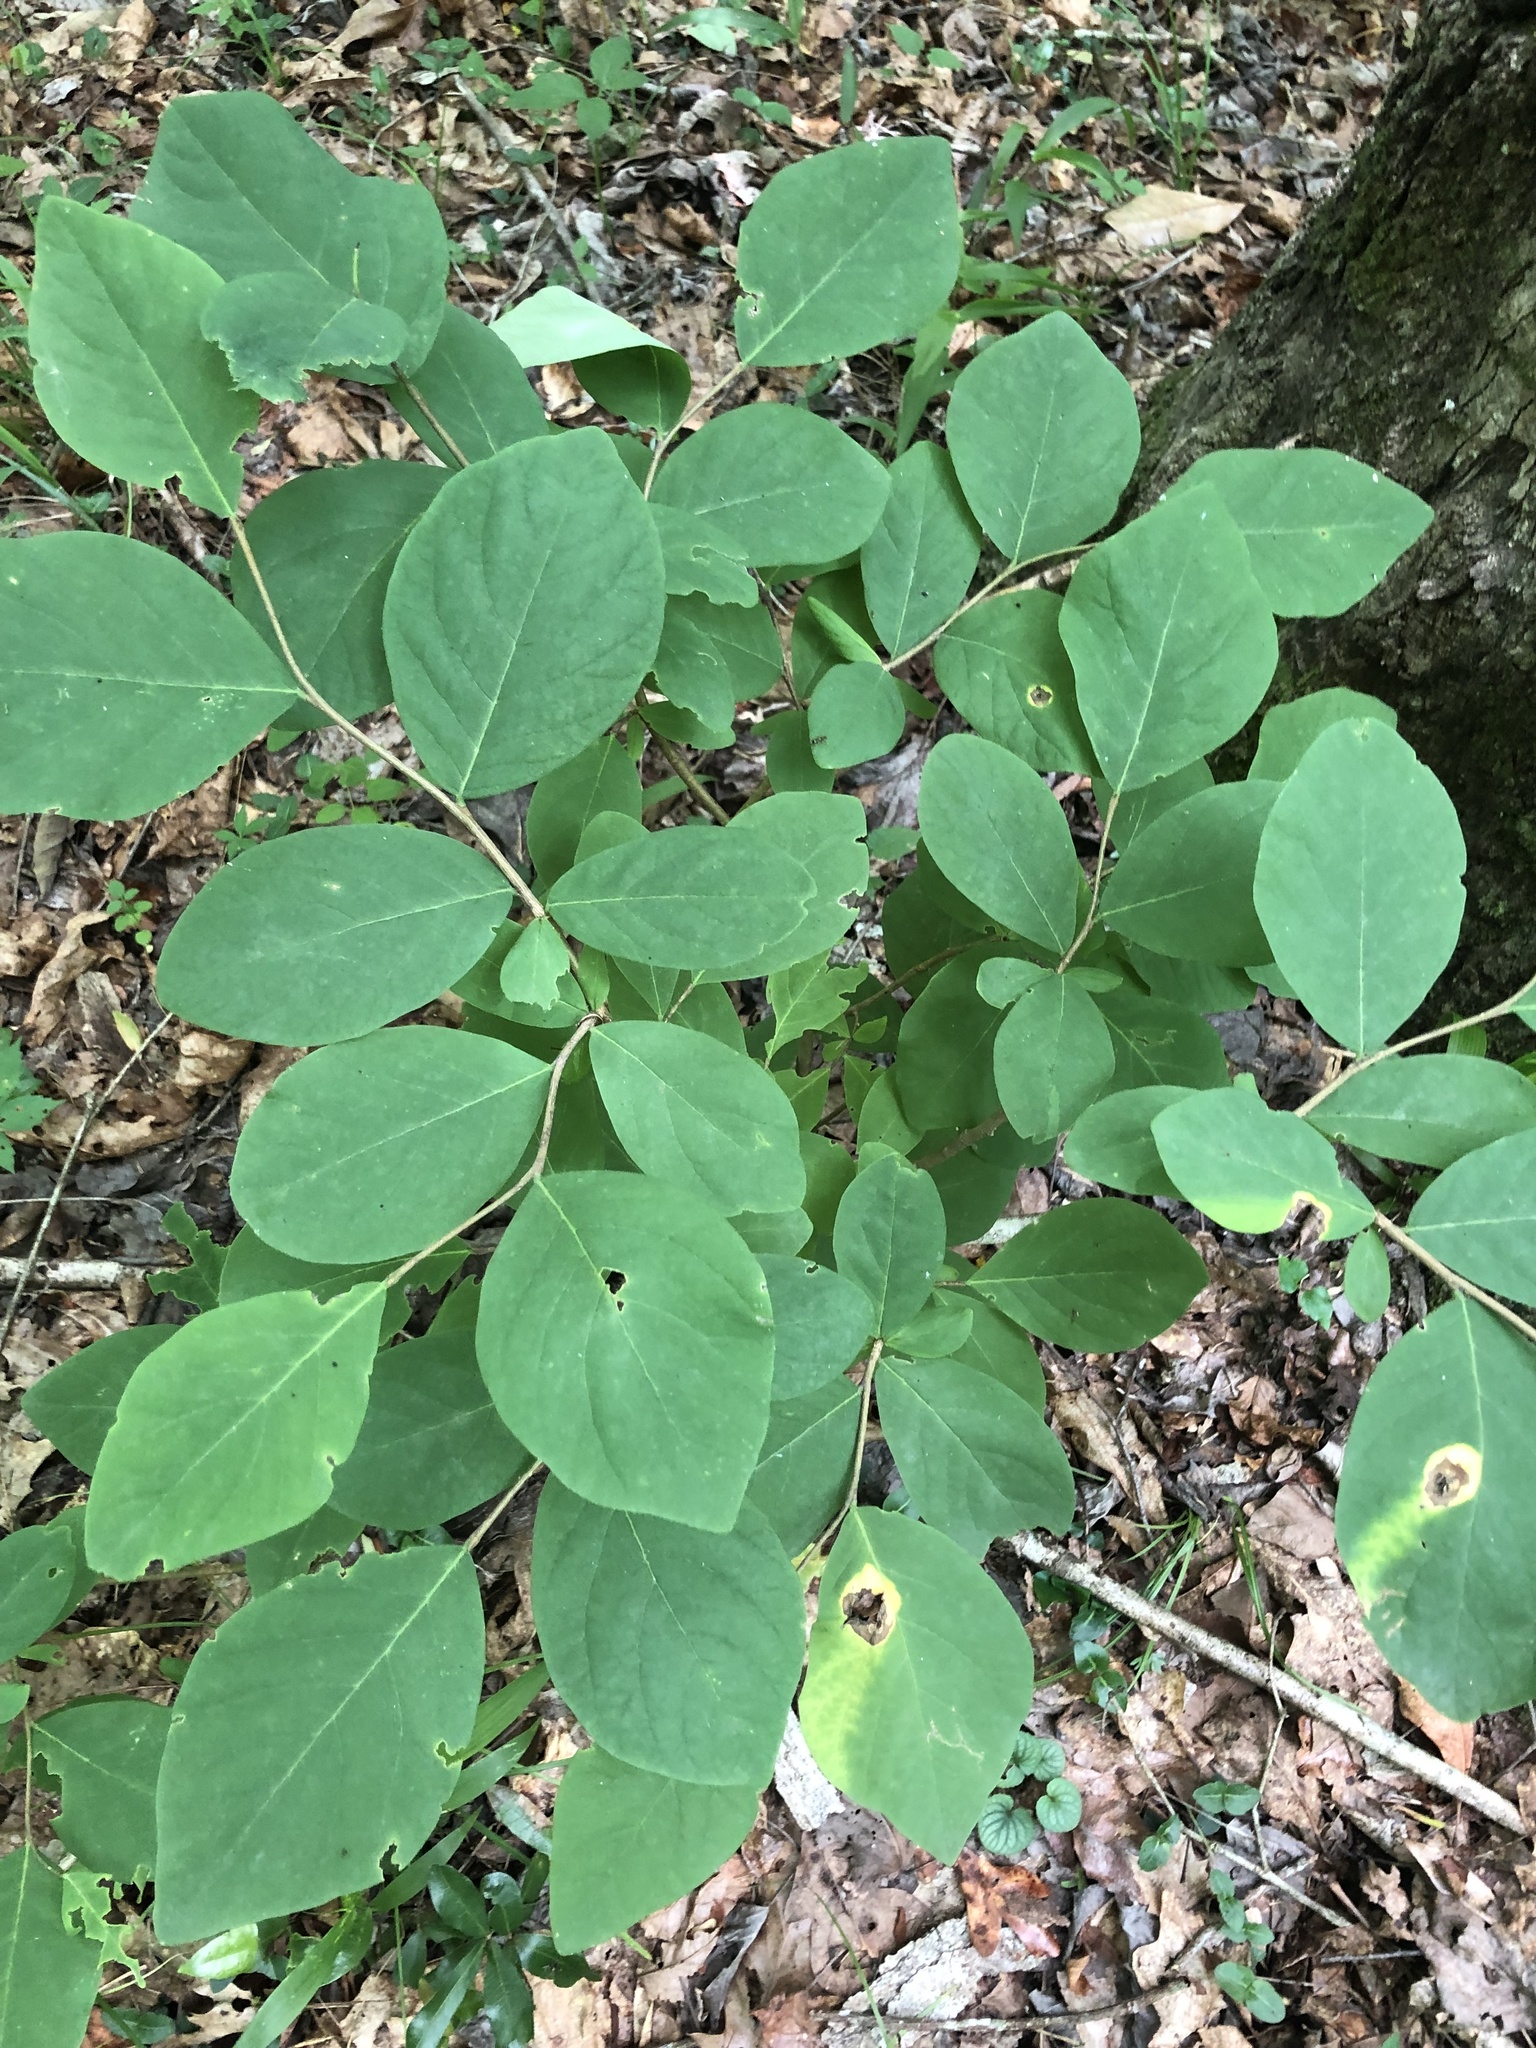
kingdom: Plantae
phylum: Tracheophyta
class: Magnoliopsida
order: Malvales
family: Thymelaeaceae
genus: Dirca
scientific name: Dirca palustris
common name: Leatherwood
